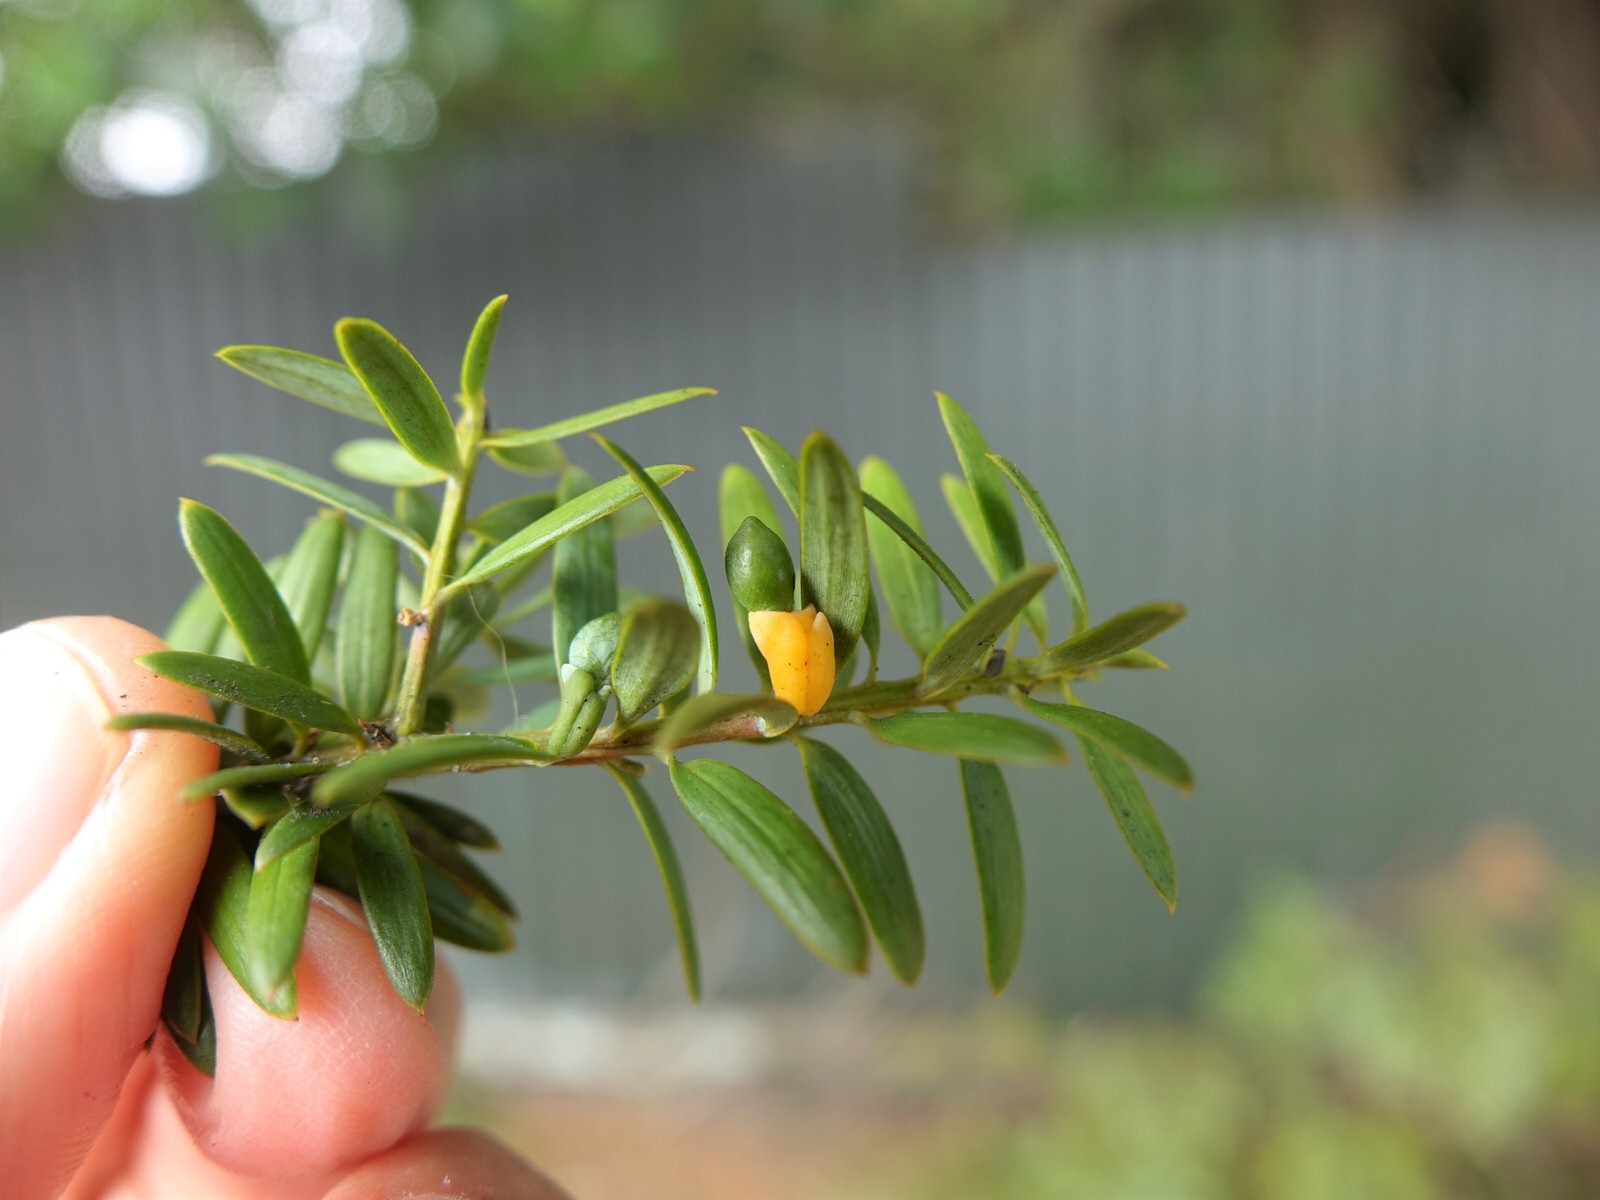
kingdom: Plantae
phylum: Tracheophyta
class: Pinopsida
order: Pinales
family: Podocarpaceae
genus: Podocarpus
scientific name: Podocarpus totara
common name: Totara
